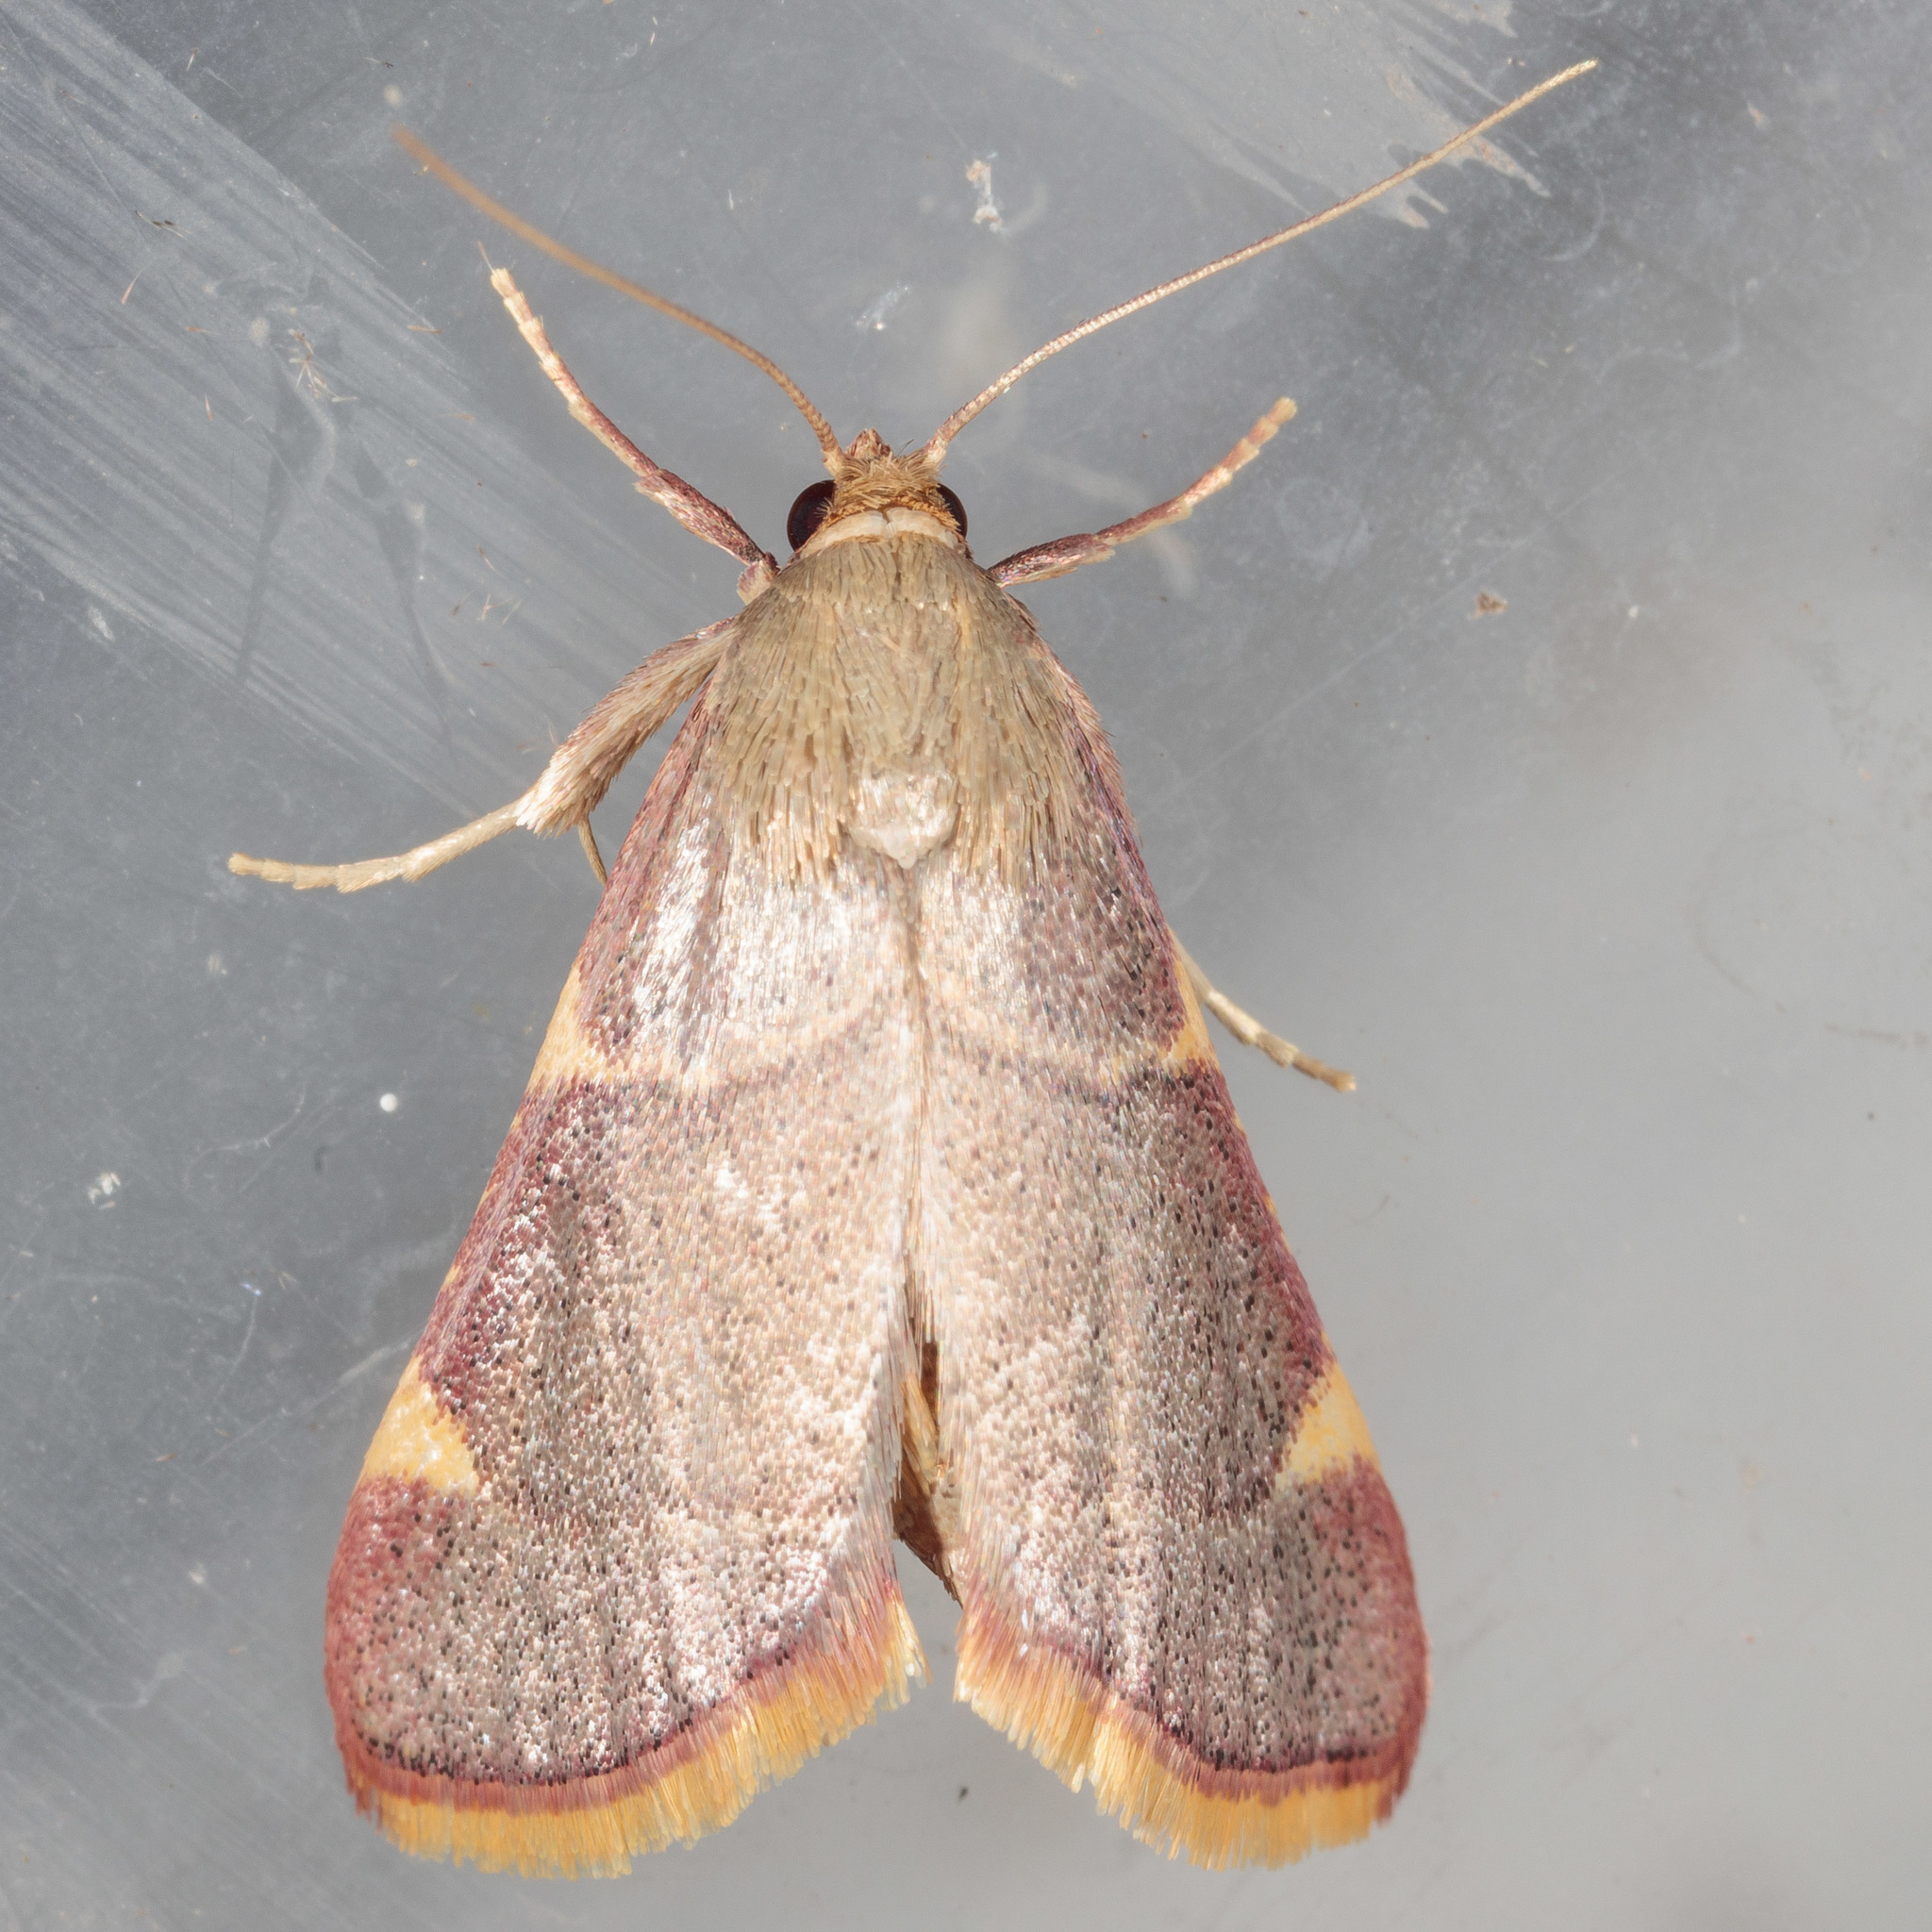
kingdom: Animalia
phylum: Arthropoda
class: Insecta
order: Lepidoptera
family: Pyralidae
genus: Hypsopygia
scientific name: Hypsopygia olinalis
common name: Yellow-fringed dolichomia moth
